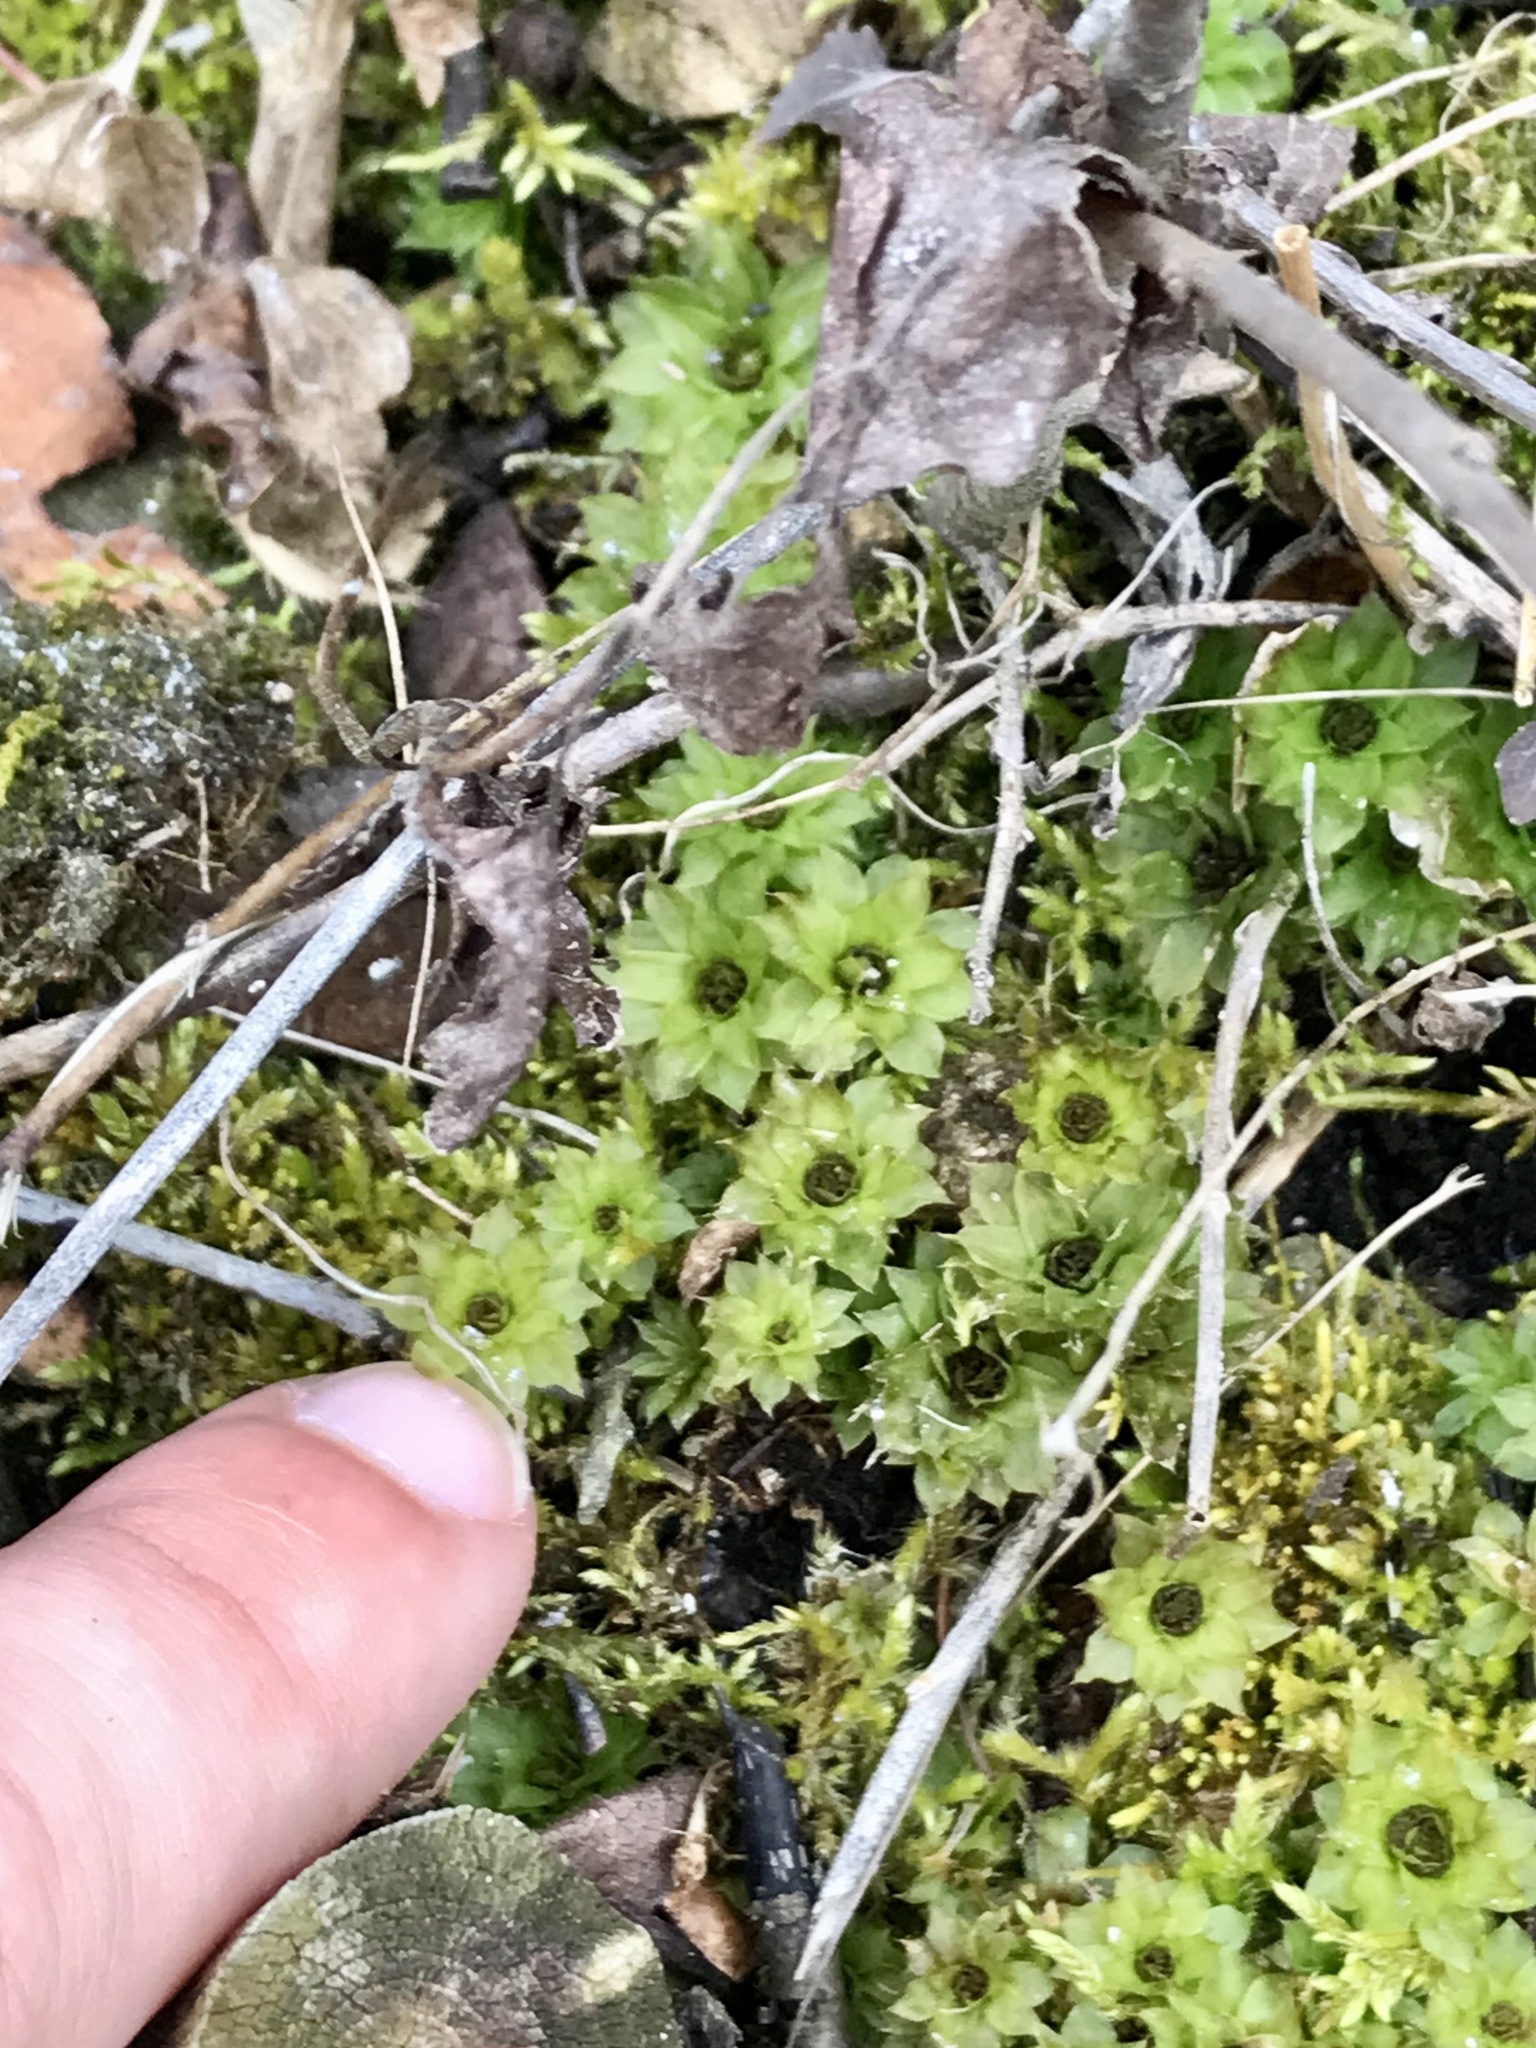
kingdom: Plantae
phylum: Bryophyta
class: Bryopsida
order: Bryales
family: Bryaceae
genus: Rhodobryum
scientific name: Rhodobryum ontariense
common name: Ontario rhodobryum moss
